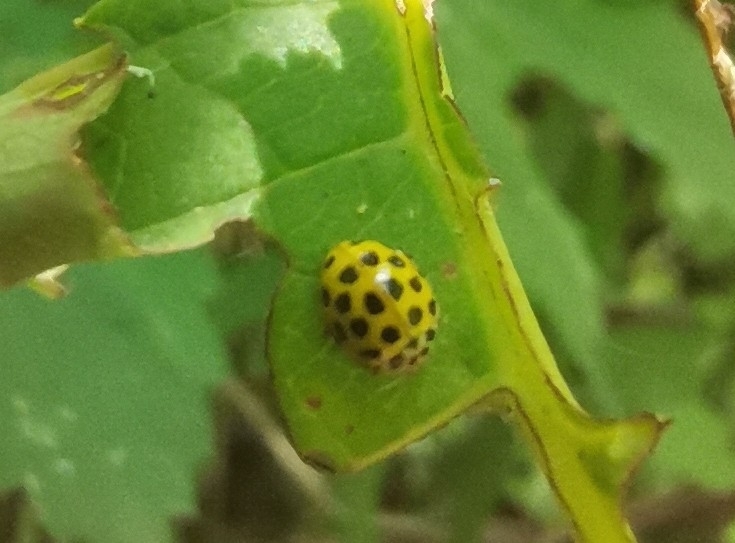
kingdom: Animalia
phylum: Arthropoda
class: Insecta
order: Coleoptera
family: Coccinellidae
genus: Psyllobora
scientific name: Psyllobora vigintiduopunctata
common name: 22-spot ladybird
